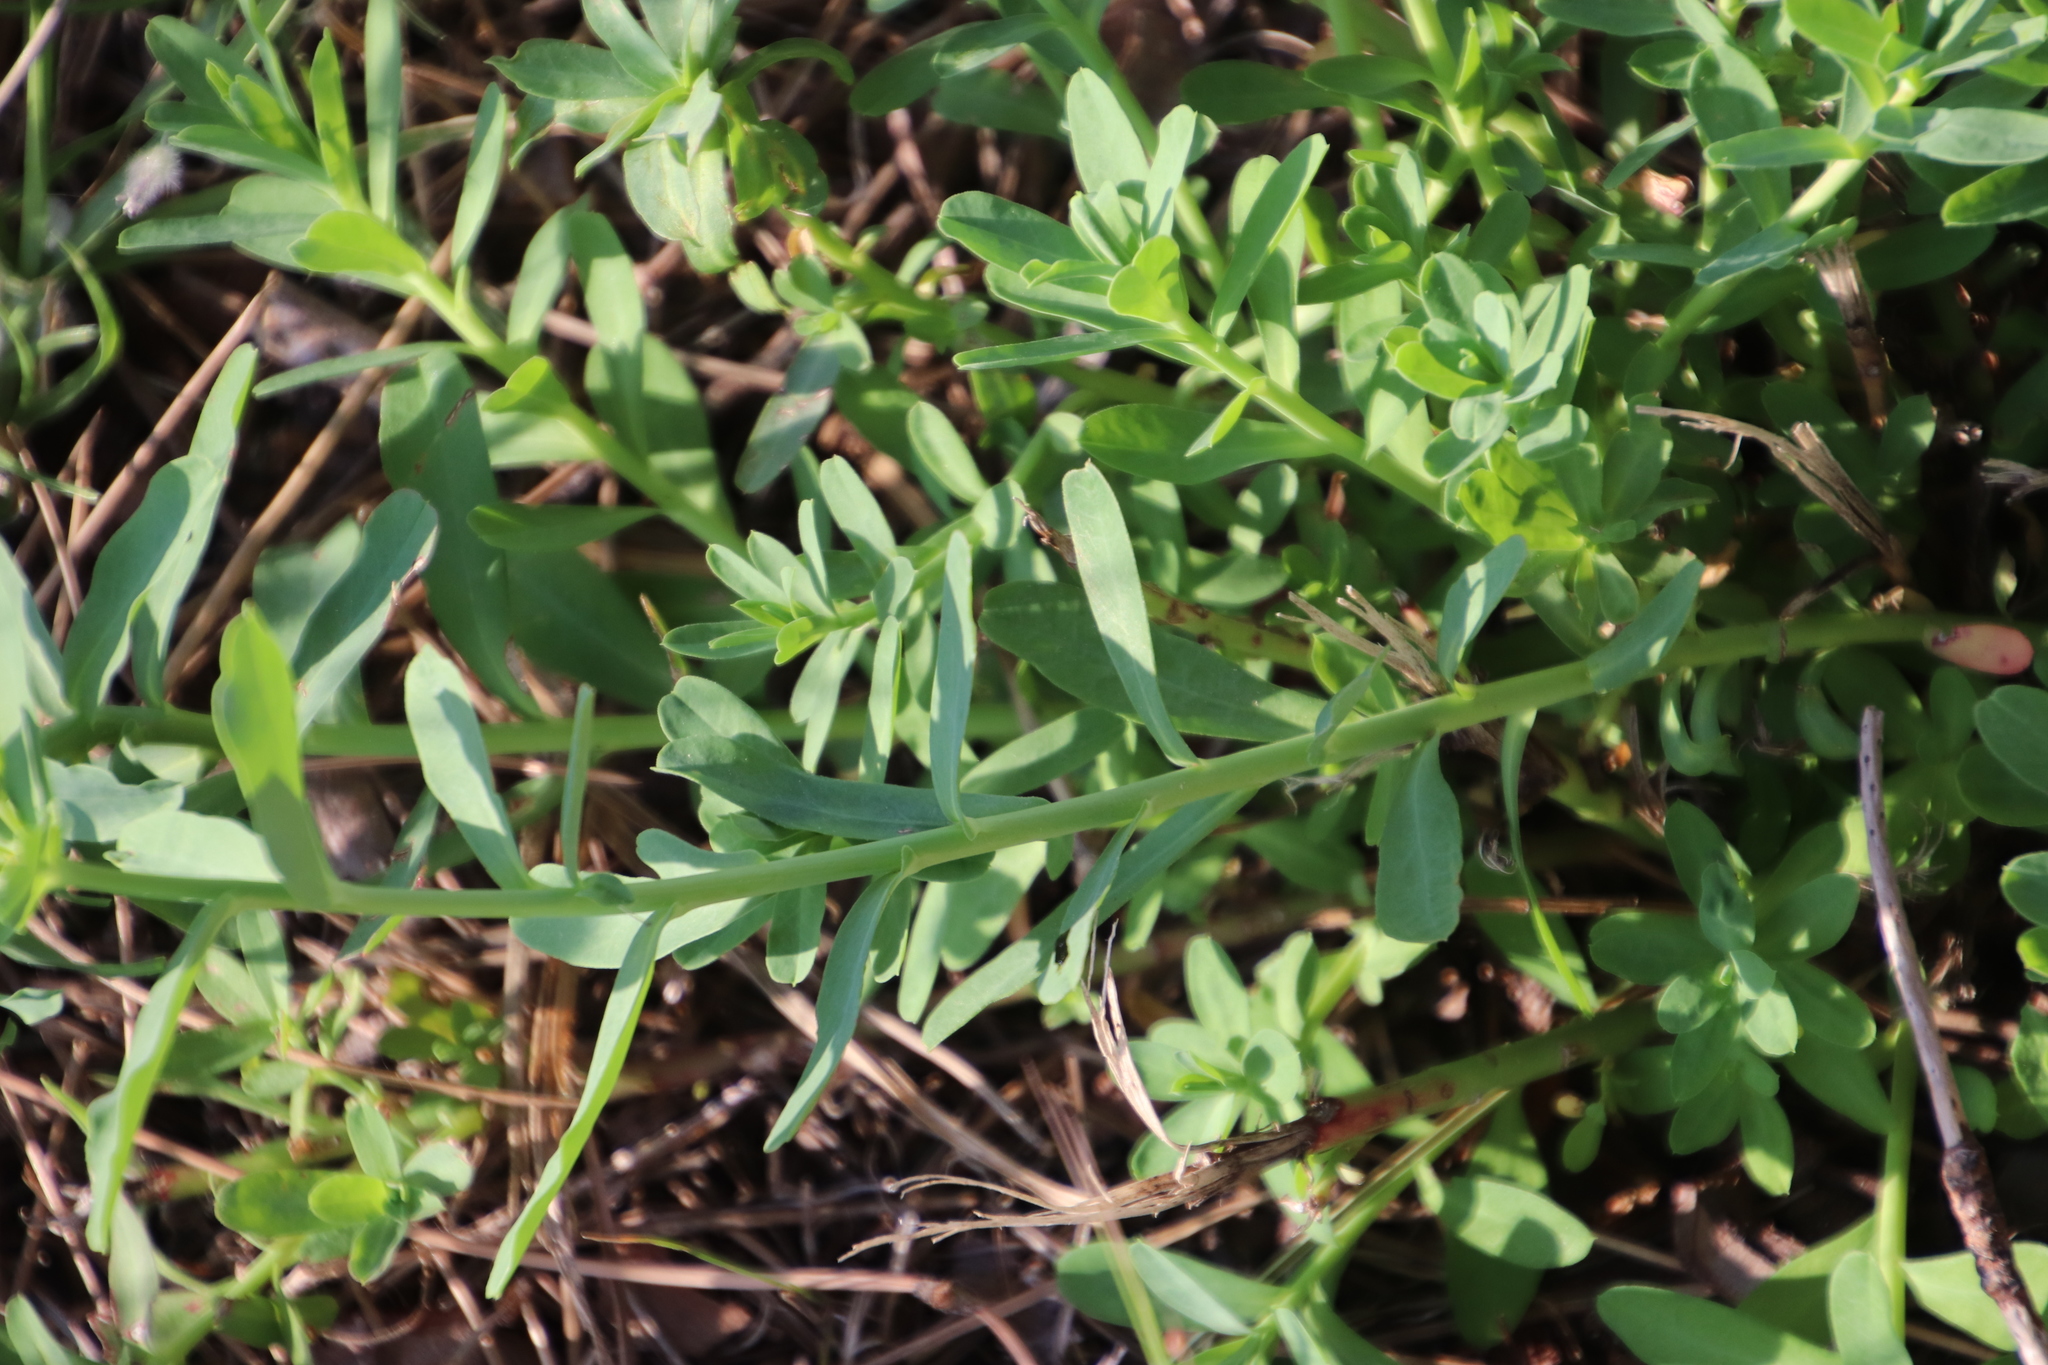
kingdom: Plantae
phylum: Tracheophyta
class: Magnoliopsida
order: Malpighiales
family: Euphorbiaceae
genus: Euphorbia
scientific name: Euphorbia terracina
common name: Geraldton carnation weed
